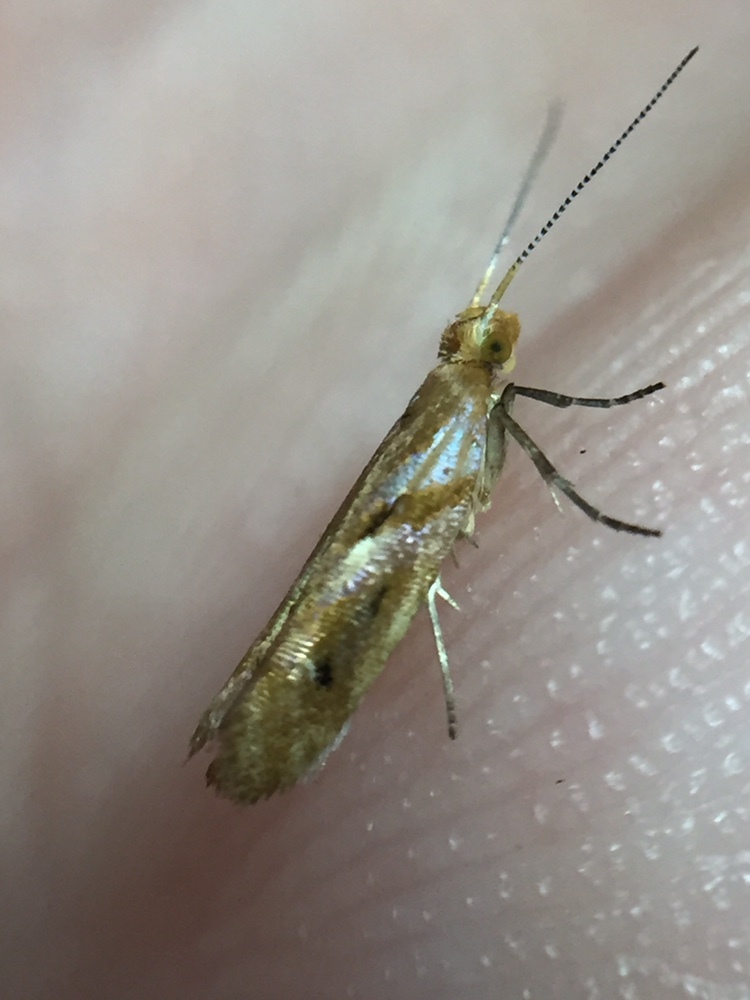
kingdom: Animalia
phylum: Arthropoda
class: Insecta
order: Lepidoptera
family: Glyphipterigidae
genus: Chrysorthenches
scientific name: Chrysorthenches virgata
